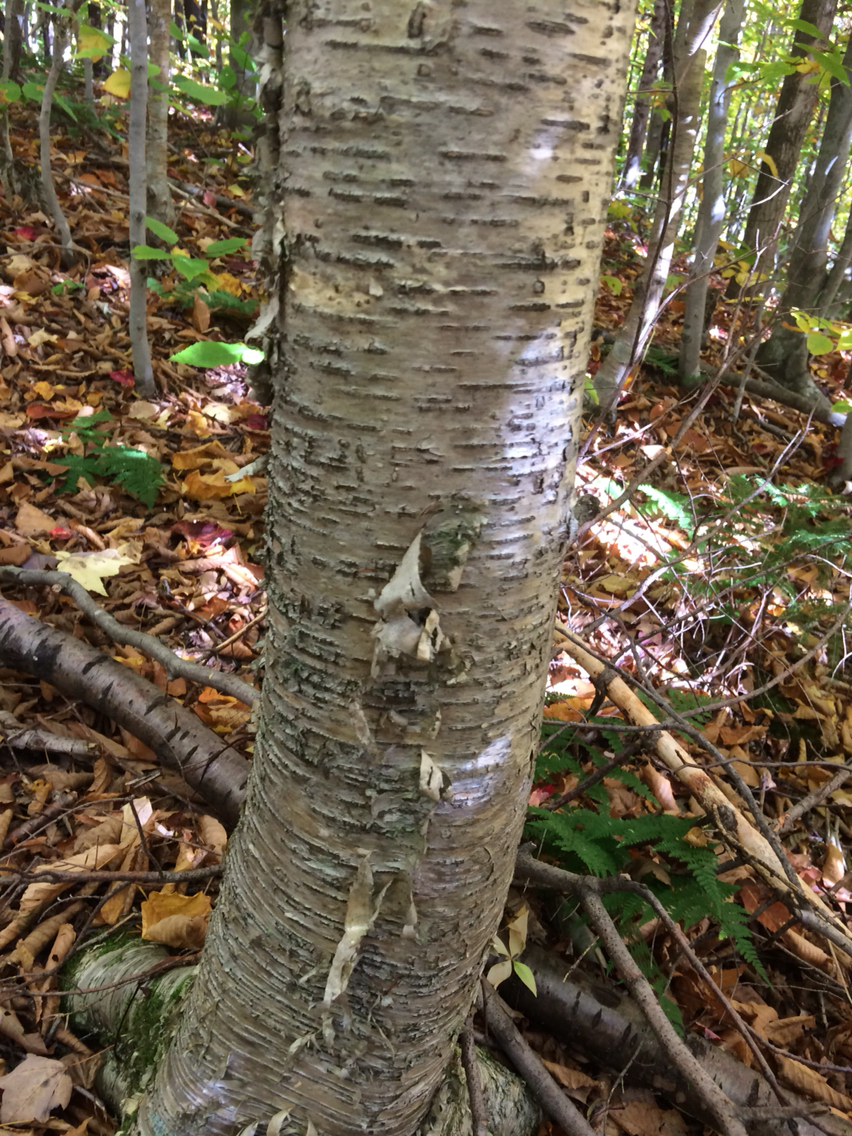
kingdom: Plantae
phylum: Tracheophyta
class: Magnoliopsida
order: Fagales
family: Betulaceae
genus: Betula
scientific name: Betula alleghaniensis
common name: Yellow birch
